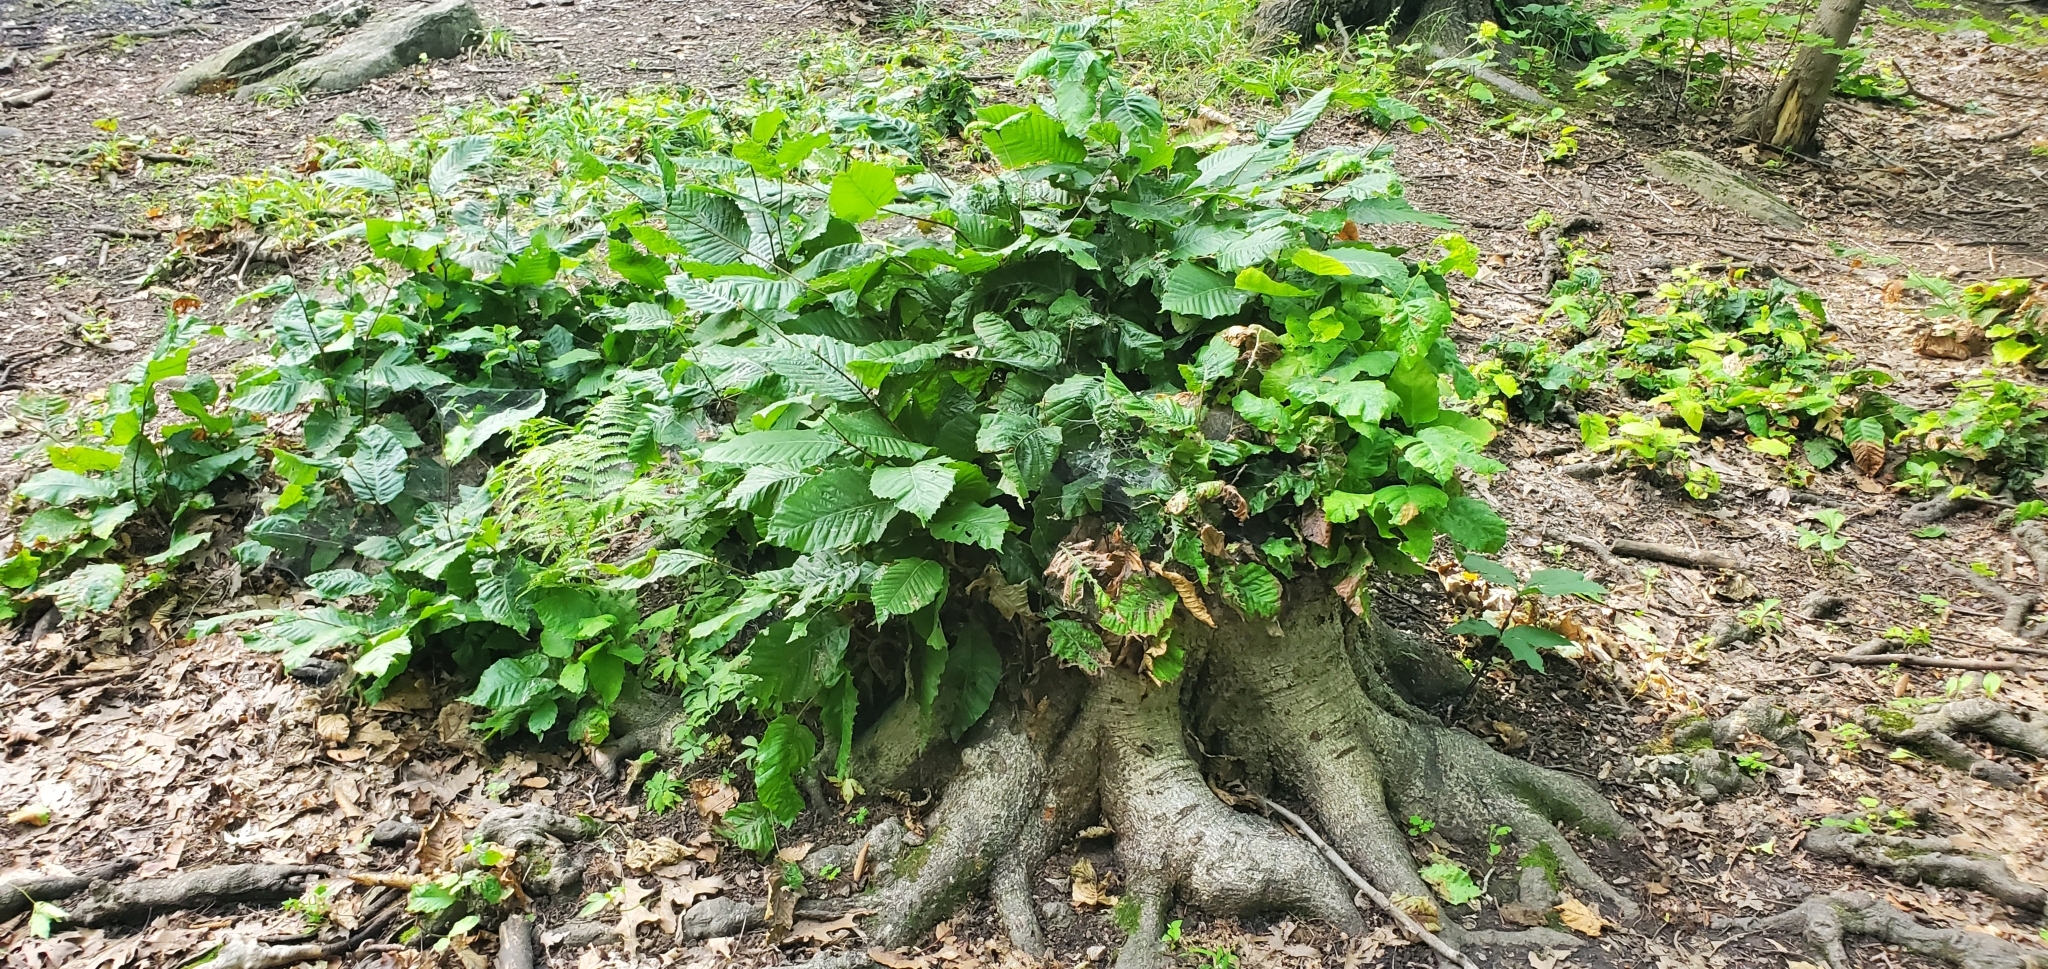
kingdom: Plantae
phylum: Tracheophyta
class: Magnoliopsida
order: Fagales
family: Fagaceae
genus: Fagus
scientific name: Fagus grandifolia
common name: American beech
